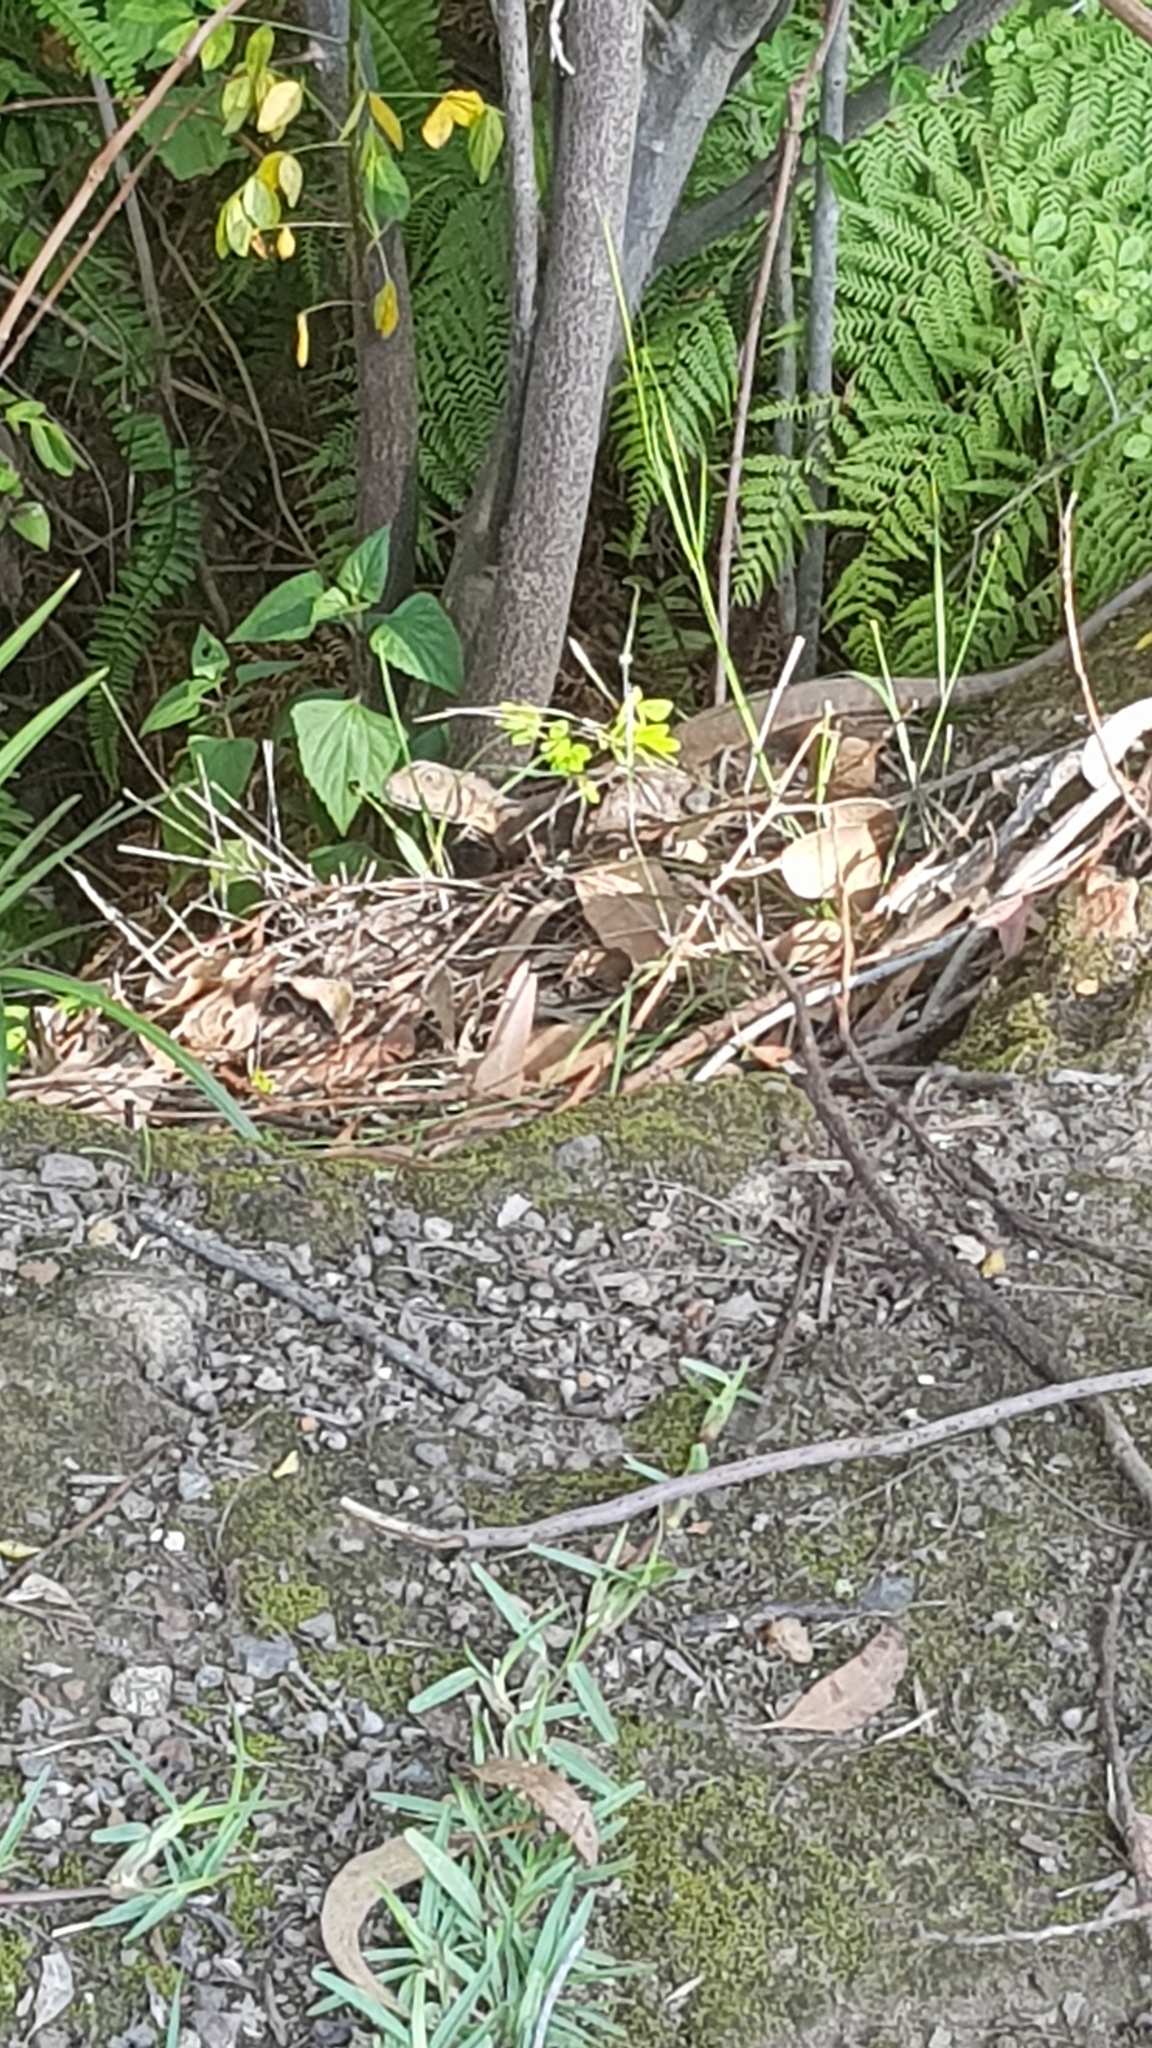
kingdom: Animalia
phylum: Chordata
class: Squamata
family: Agamidae
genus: Intellagama
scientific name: Intellagama lesueurii
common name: Eastern water dragon
